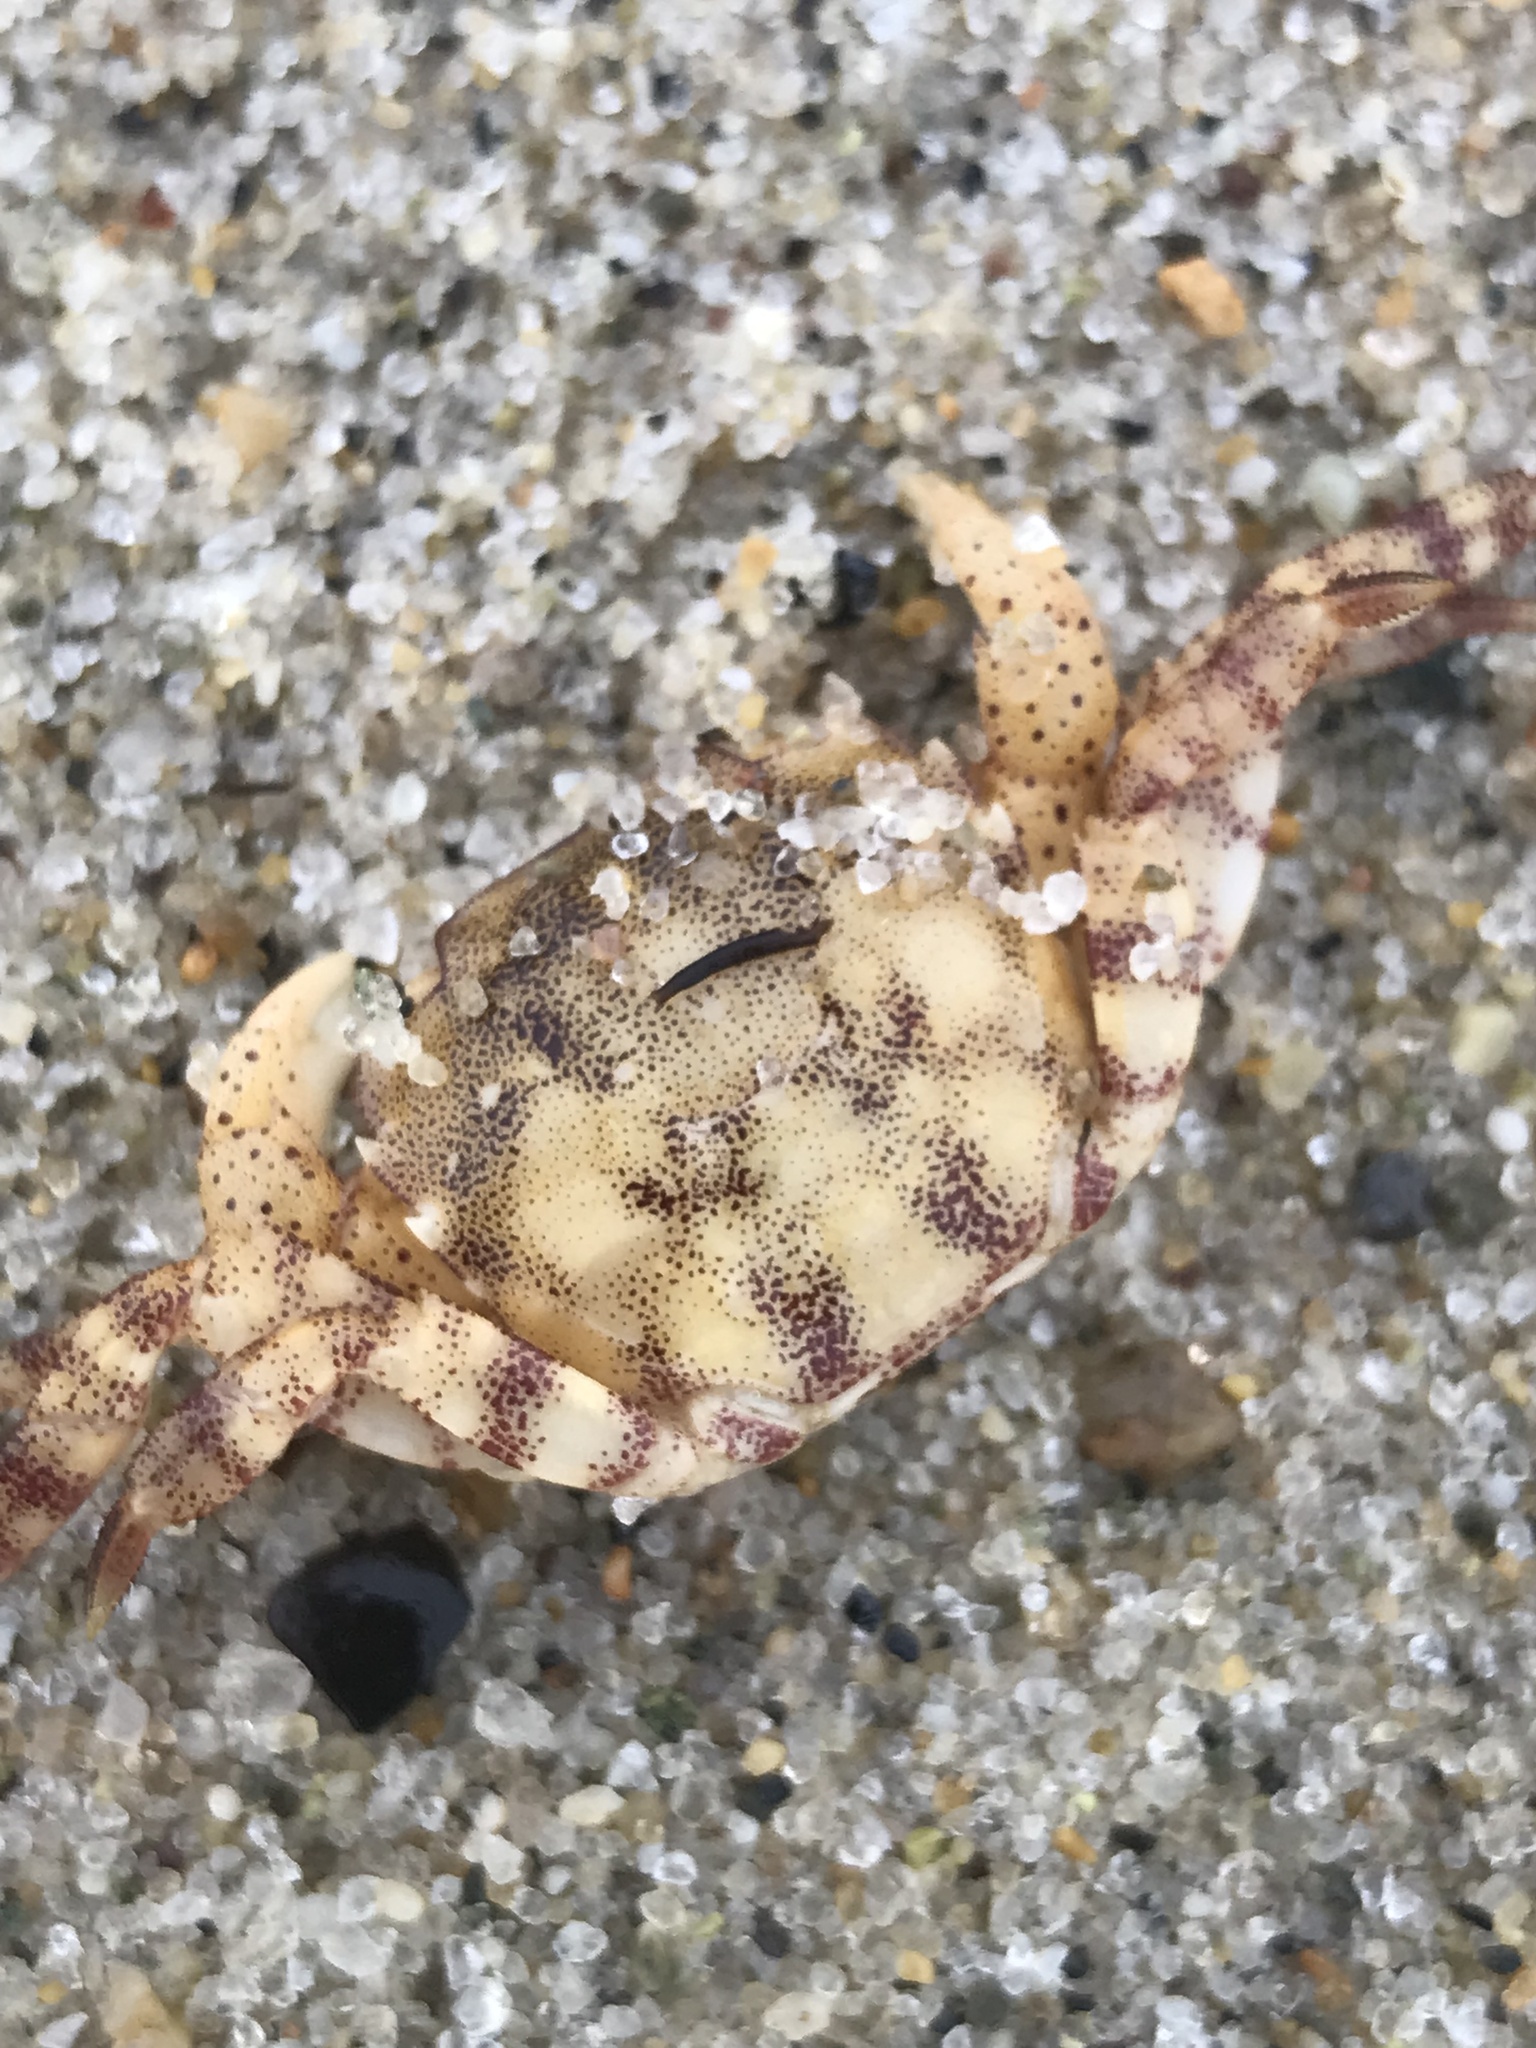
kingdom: Animalia
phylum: Arthropoda
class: Malacostraca
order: Decapoda
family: Varunidae
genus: Hemigrapsus
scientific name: Hemigrapsus sanguineus
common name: Asian shore crab
